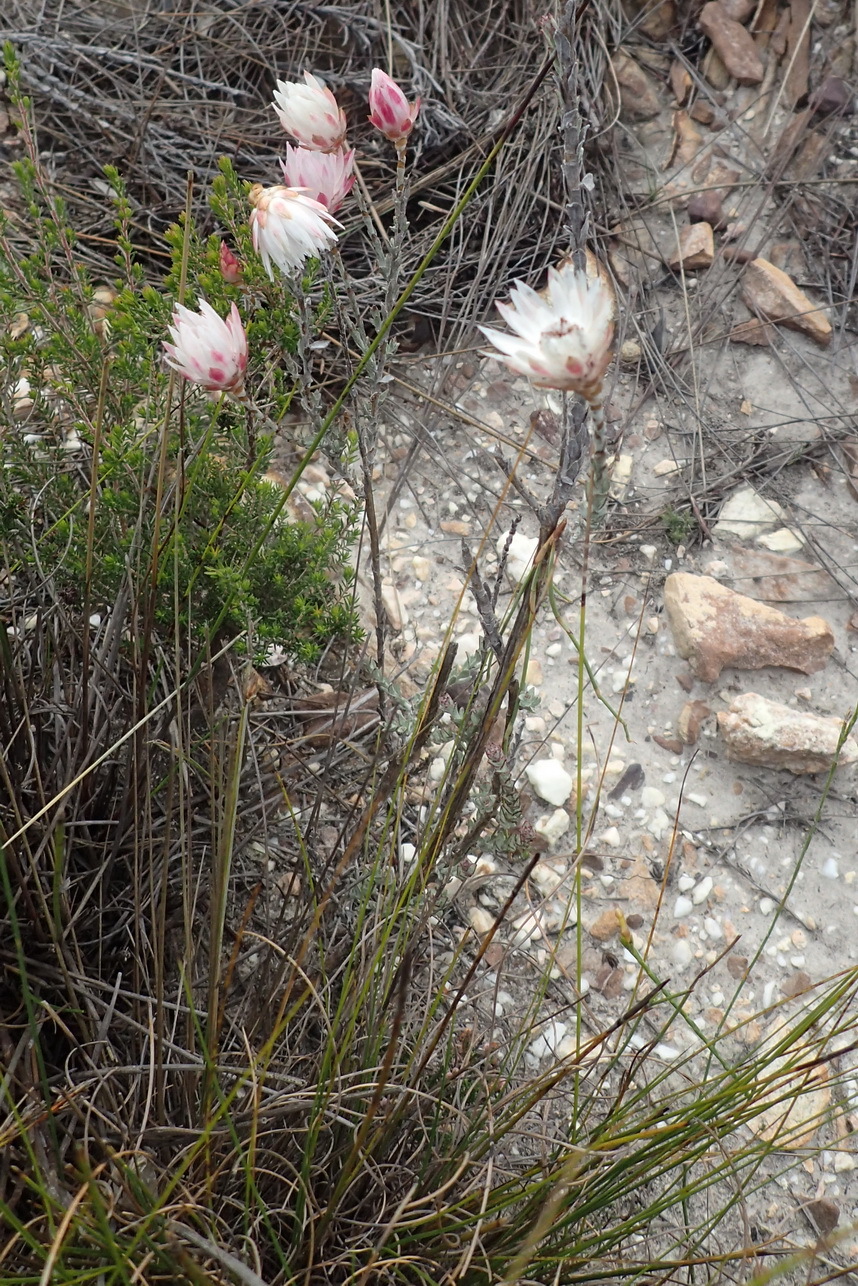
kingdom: Plantae
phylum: Tracheophyta
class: Magnoliopsida
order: Asterales
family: Asteraceae
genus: Syncarpha
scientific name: Syncarpha canescens
